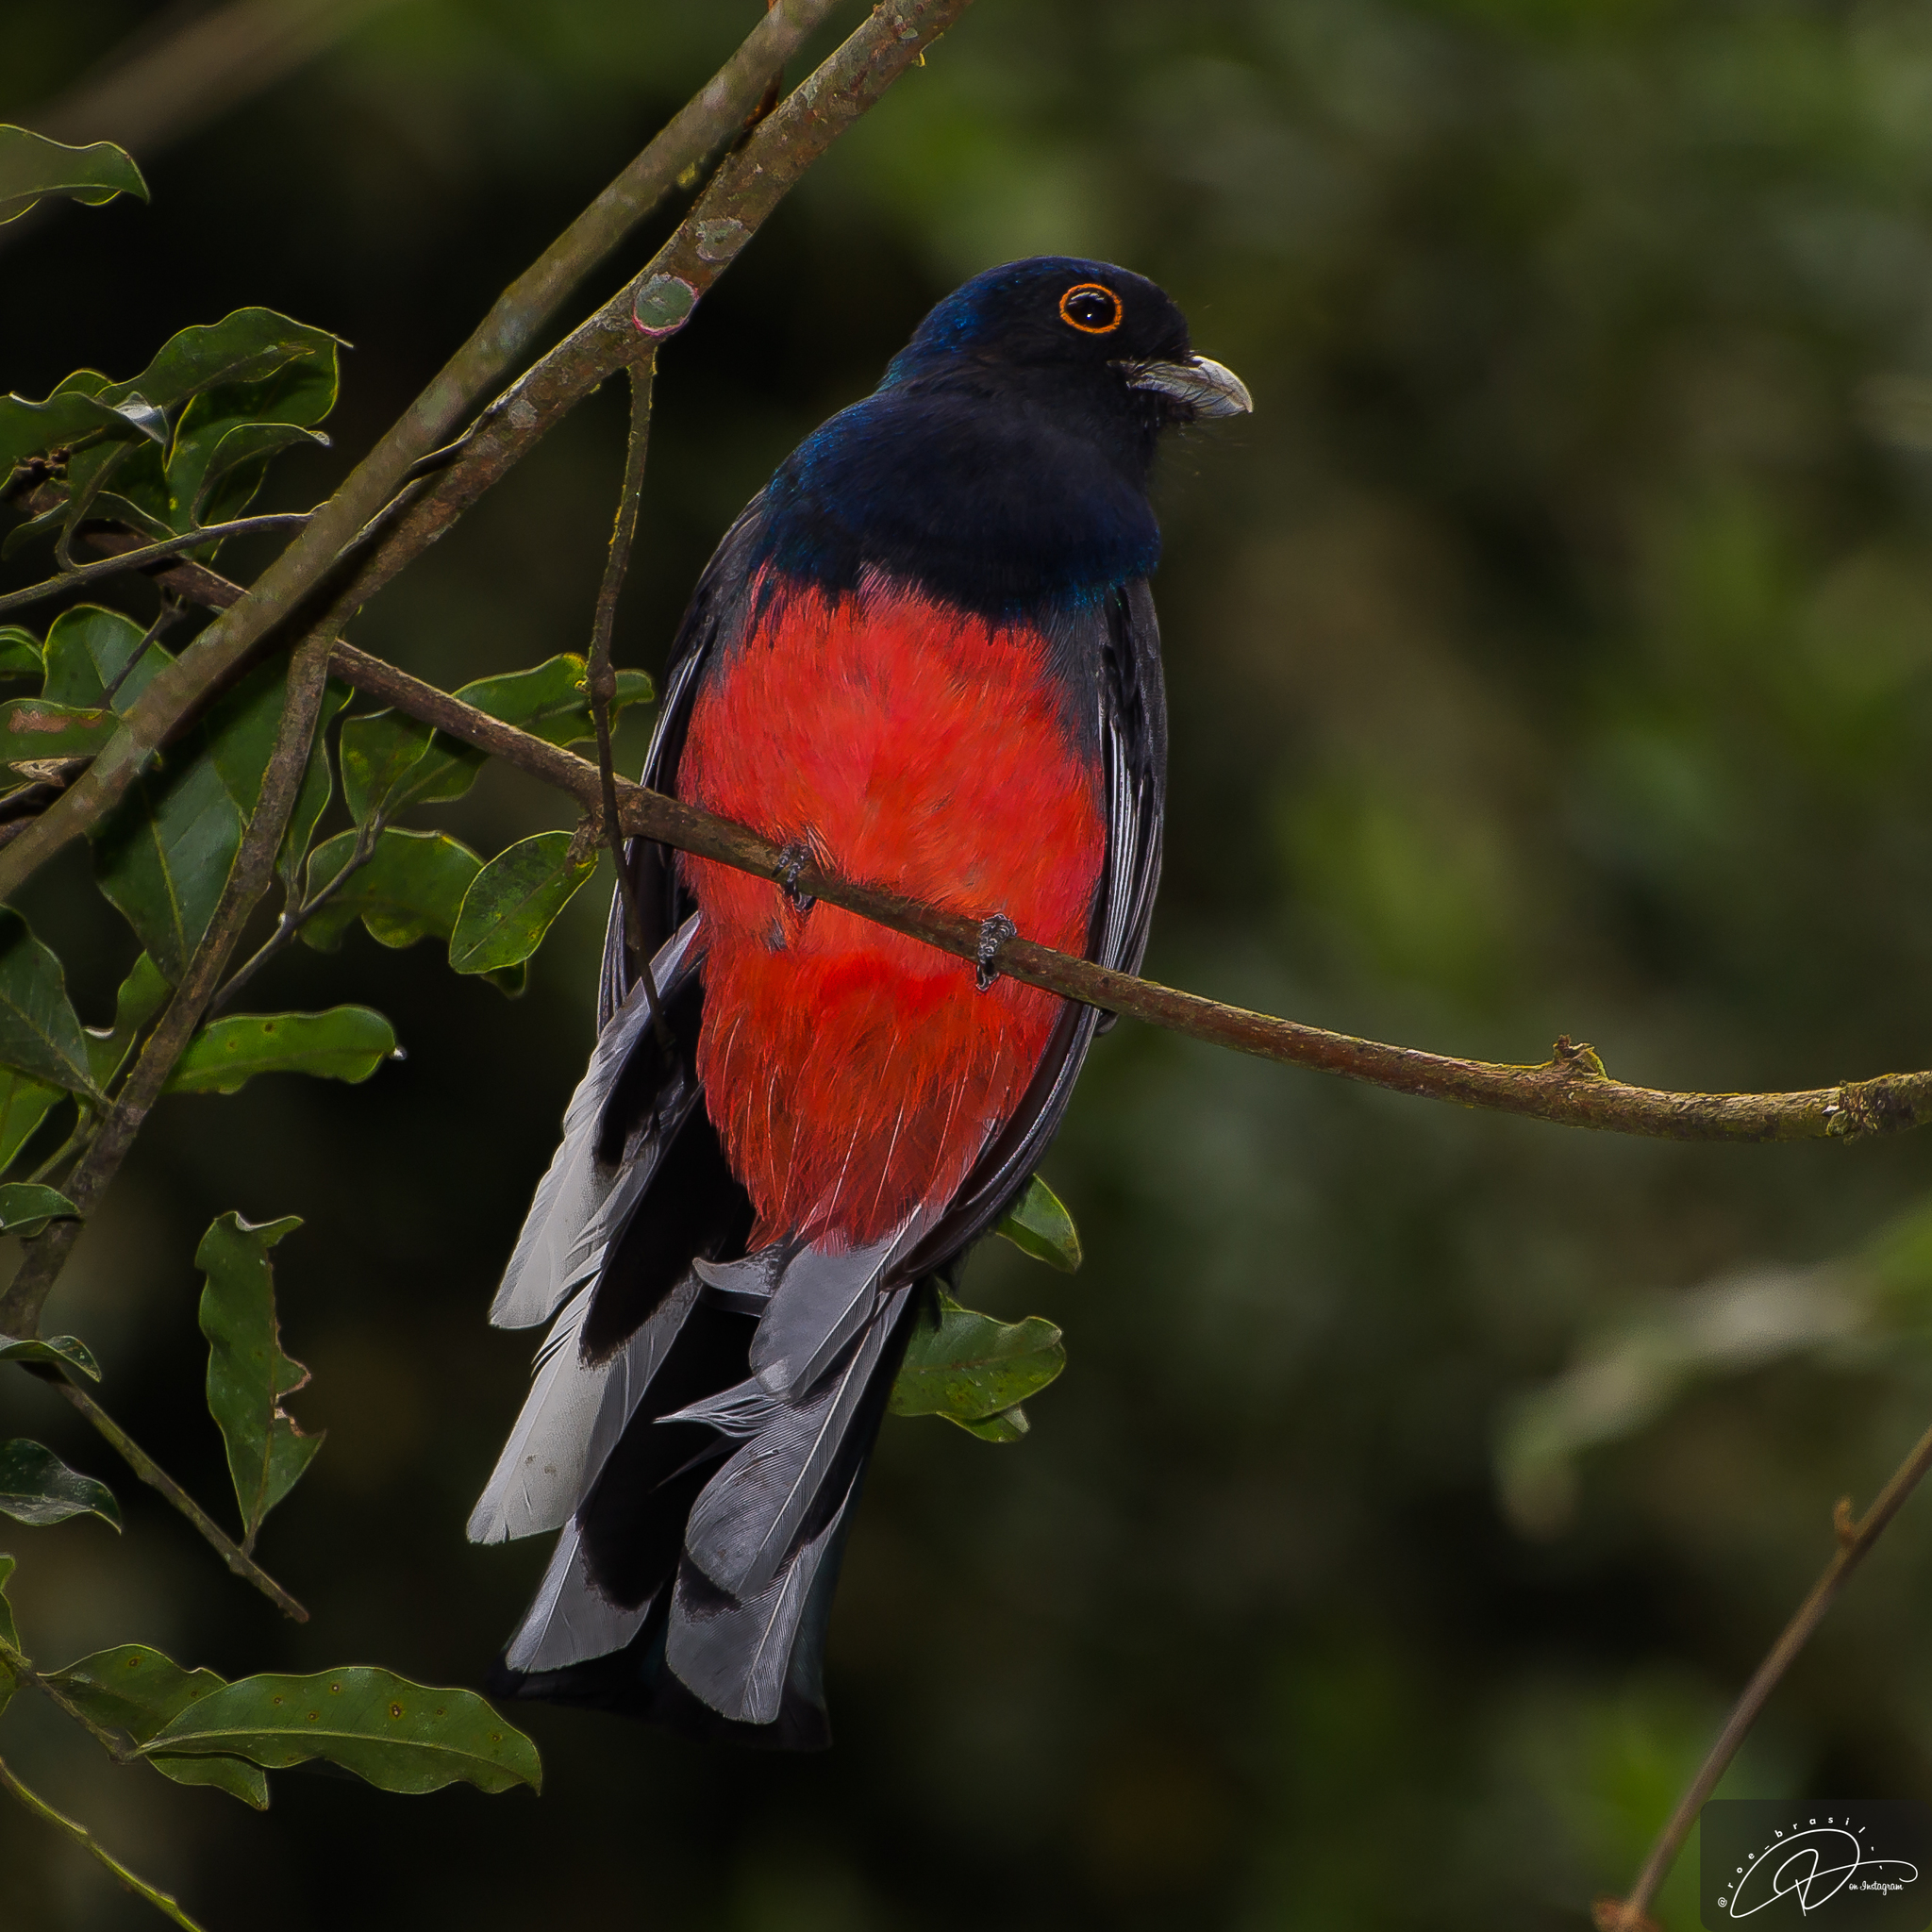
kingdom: Animalia
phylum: Chordata
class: Aves
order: Trogoniformes
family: Trogonidae
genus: Trogon
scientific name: Trogon surrucura
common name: Surucua trogon
